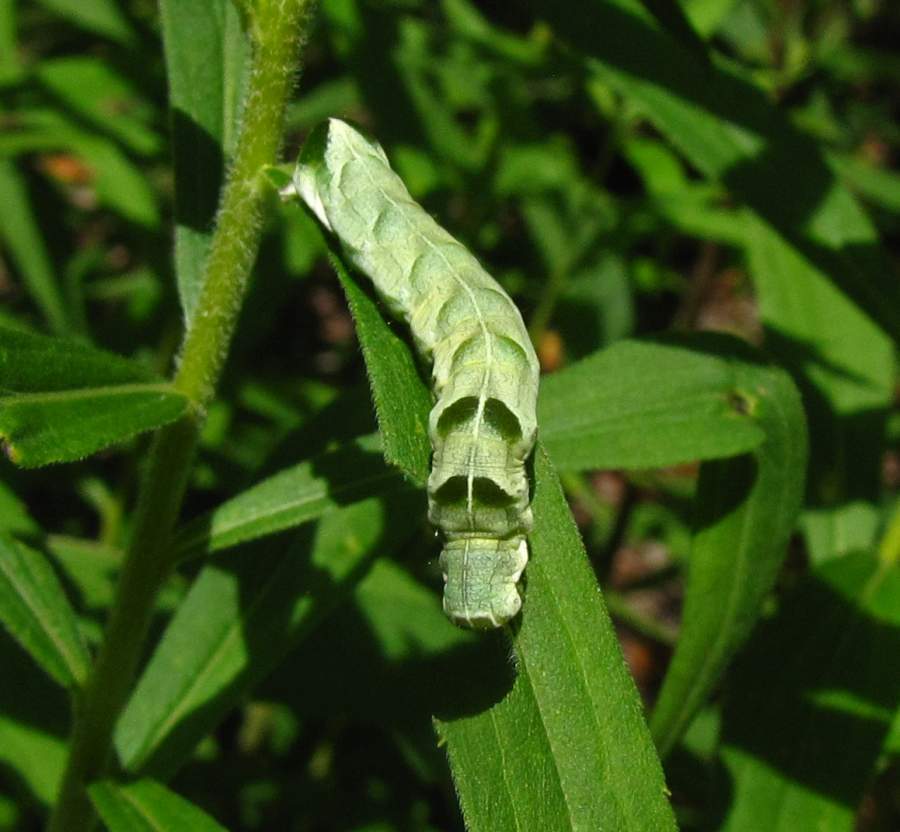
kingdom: Animalia
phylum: Arthropoda
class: Insecta
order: Lepidoptera
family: Noctuidae
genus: Melanchra
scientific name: Melanchra adjuncta
